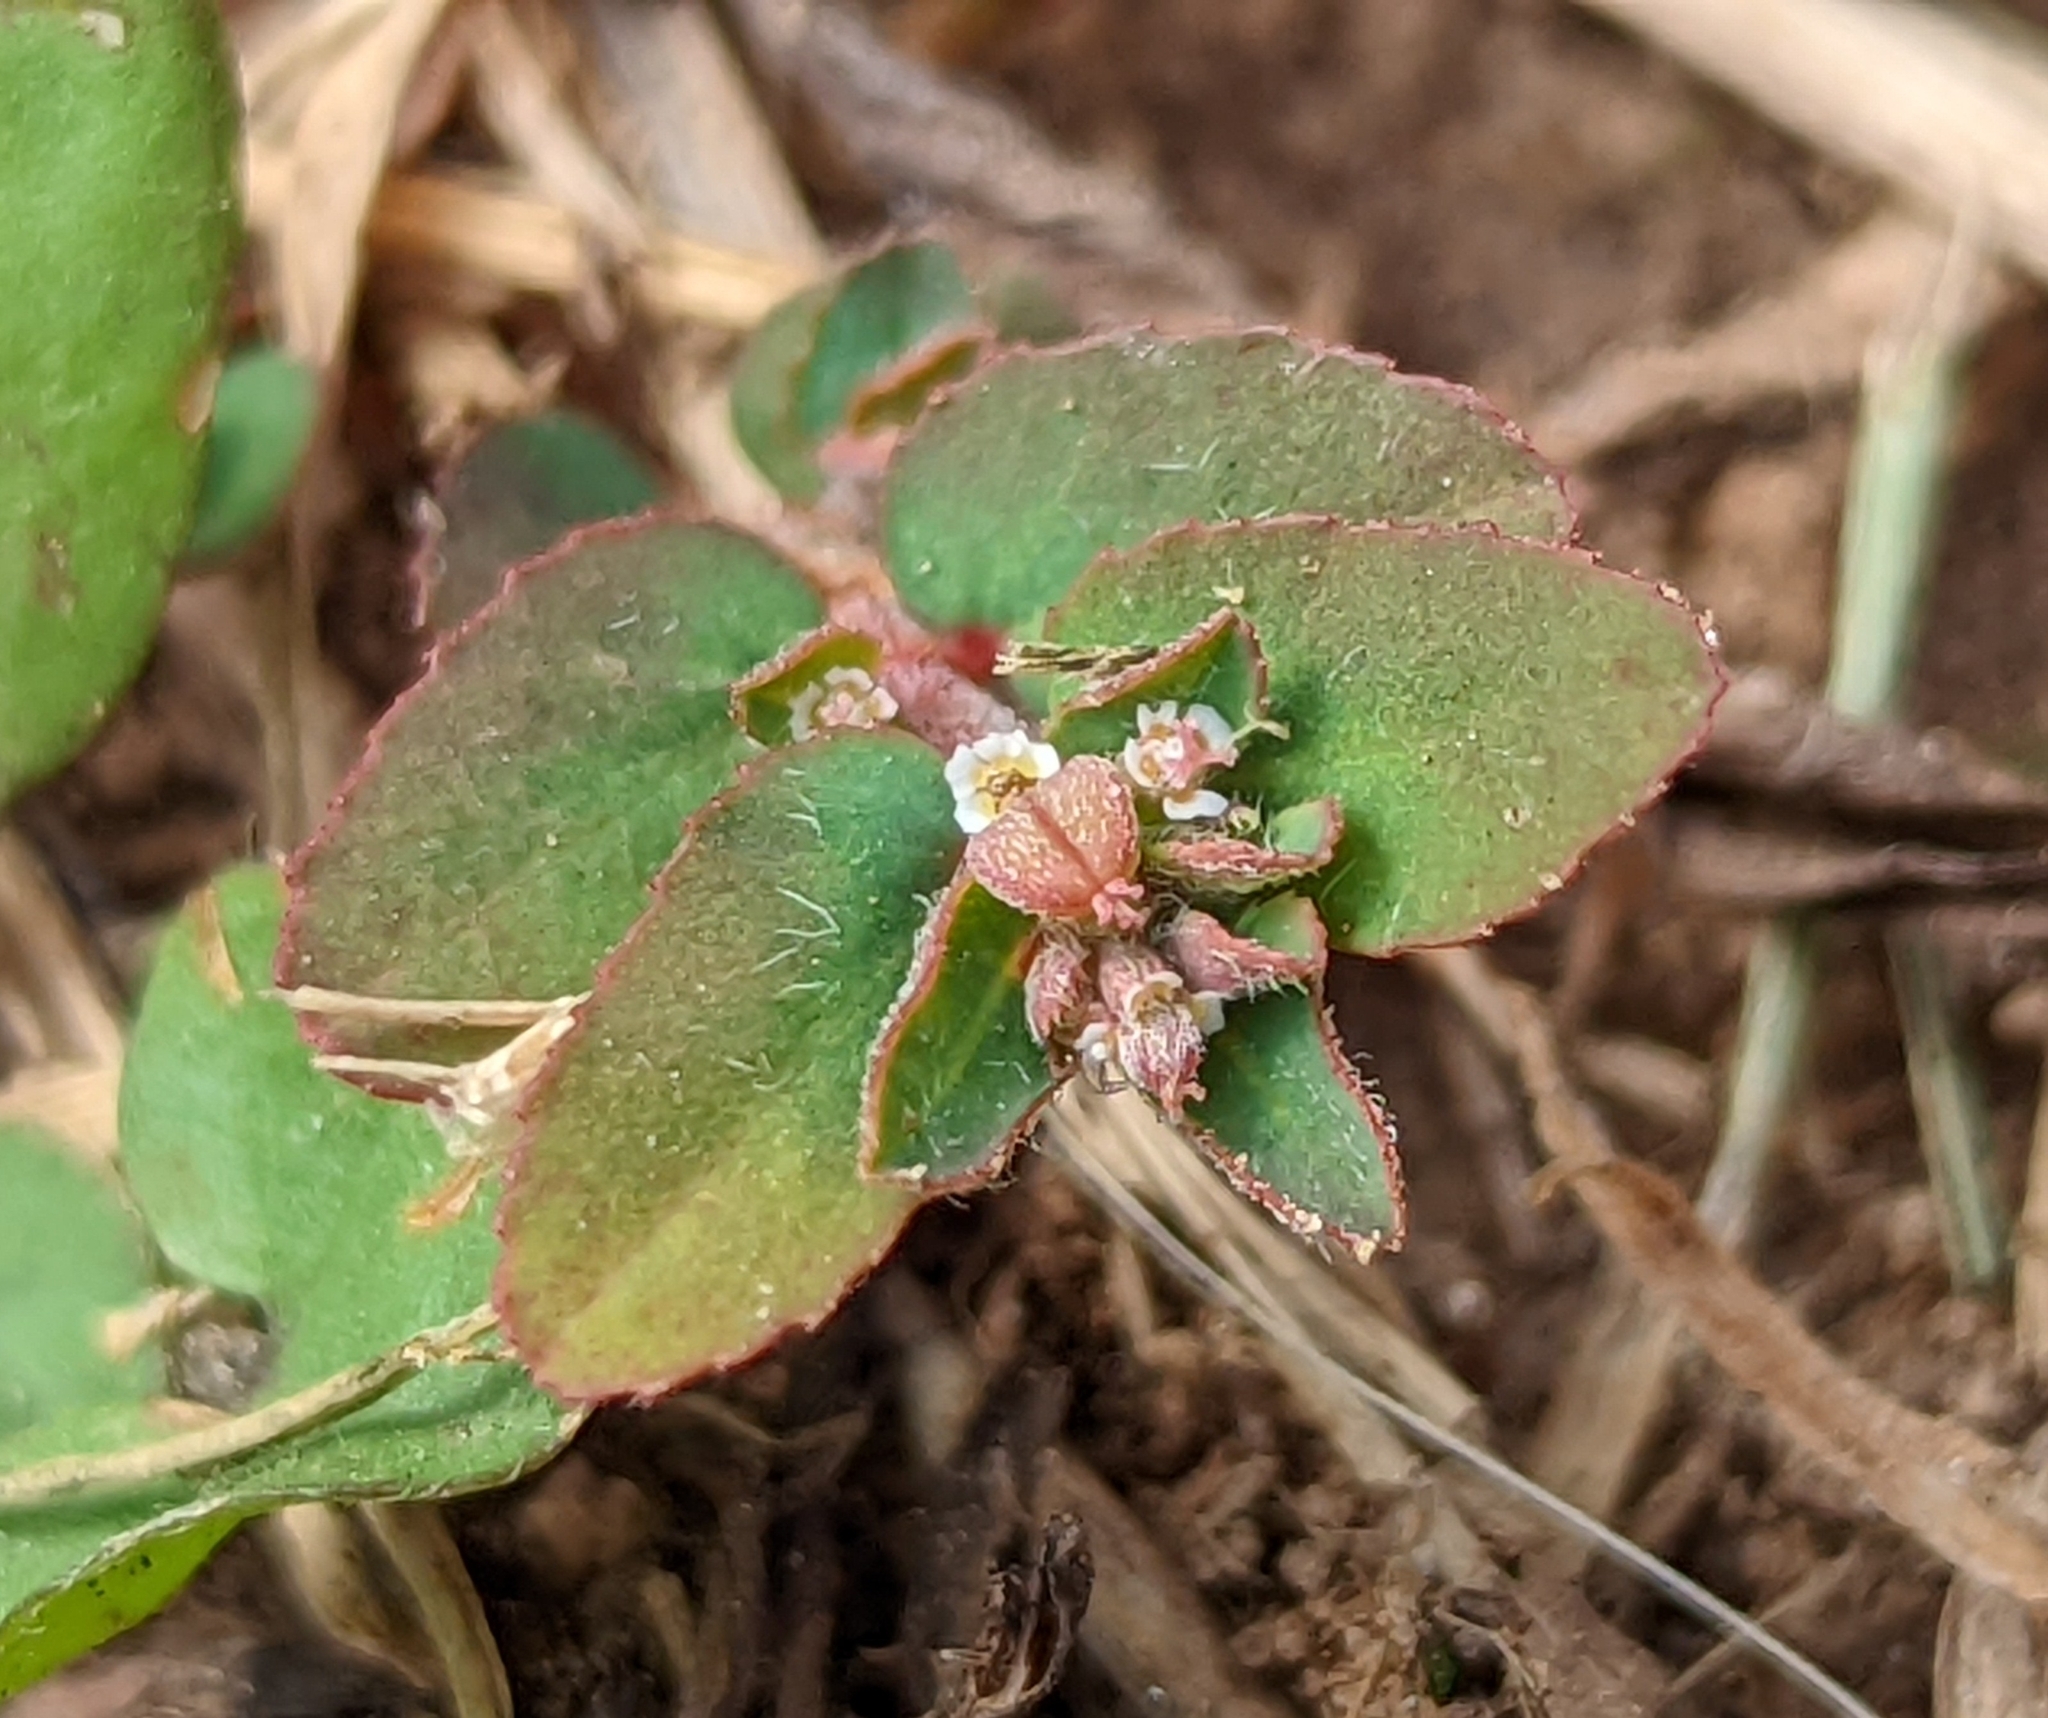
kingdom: Plantae
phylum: Tracheophyta
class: Magnoliopsida
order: Malpighiales
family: Euphorbiaceae
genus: Euphorbia
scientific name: Euphorbia maculata
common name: Spotted spurge
